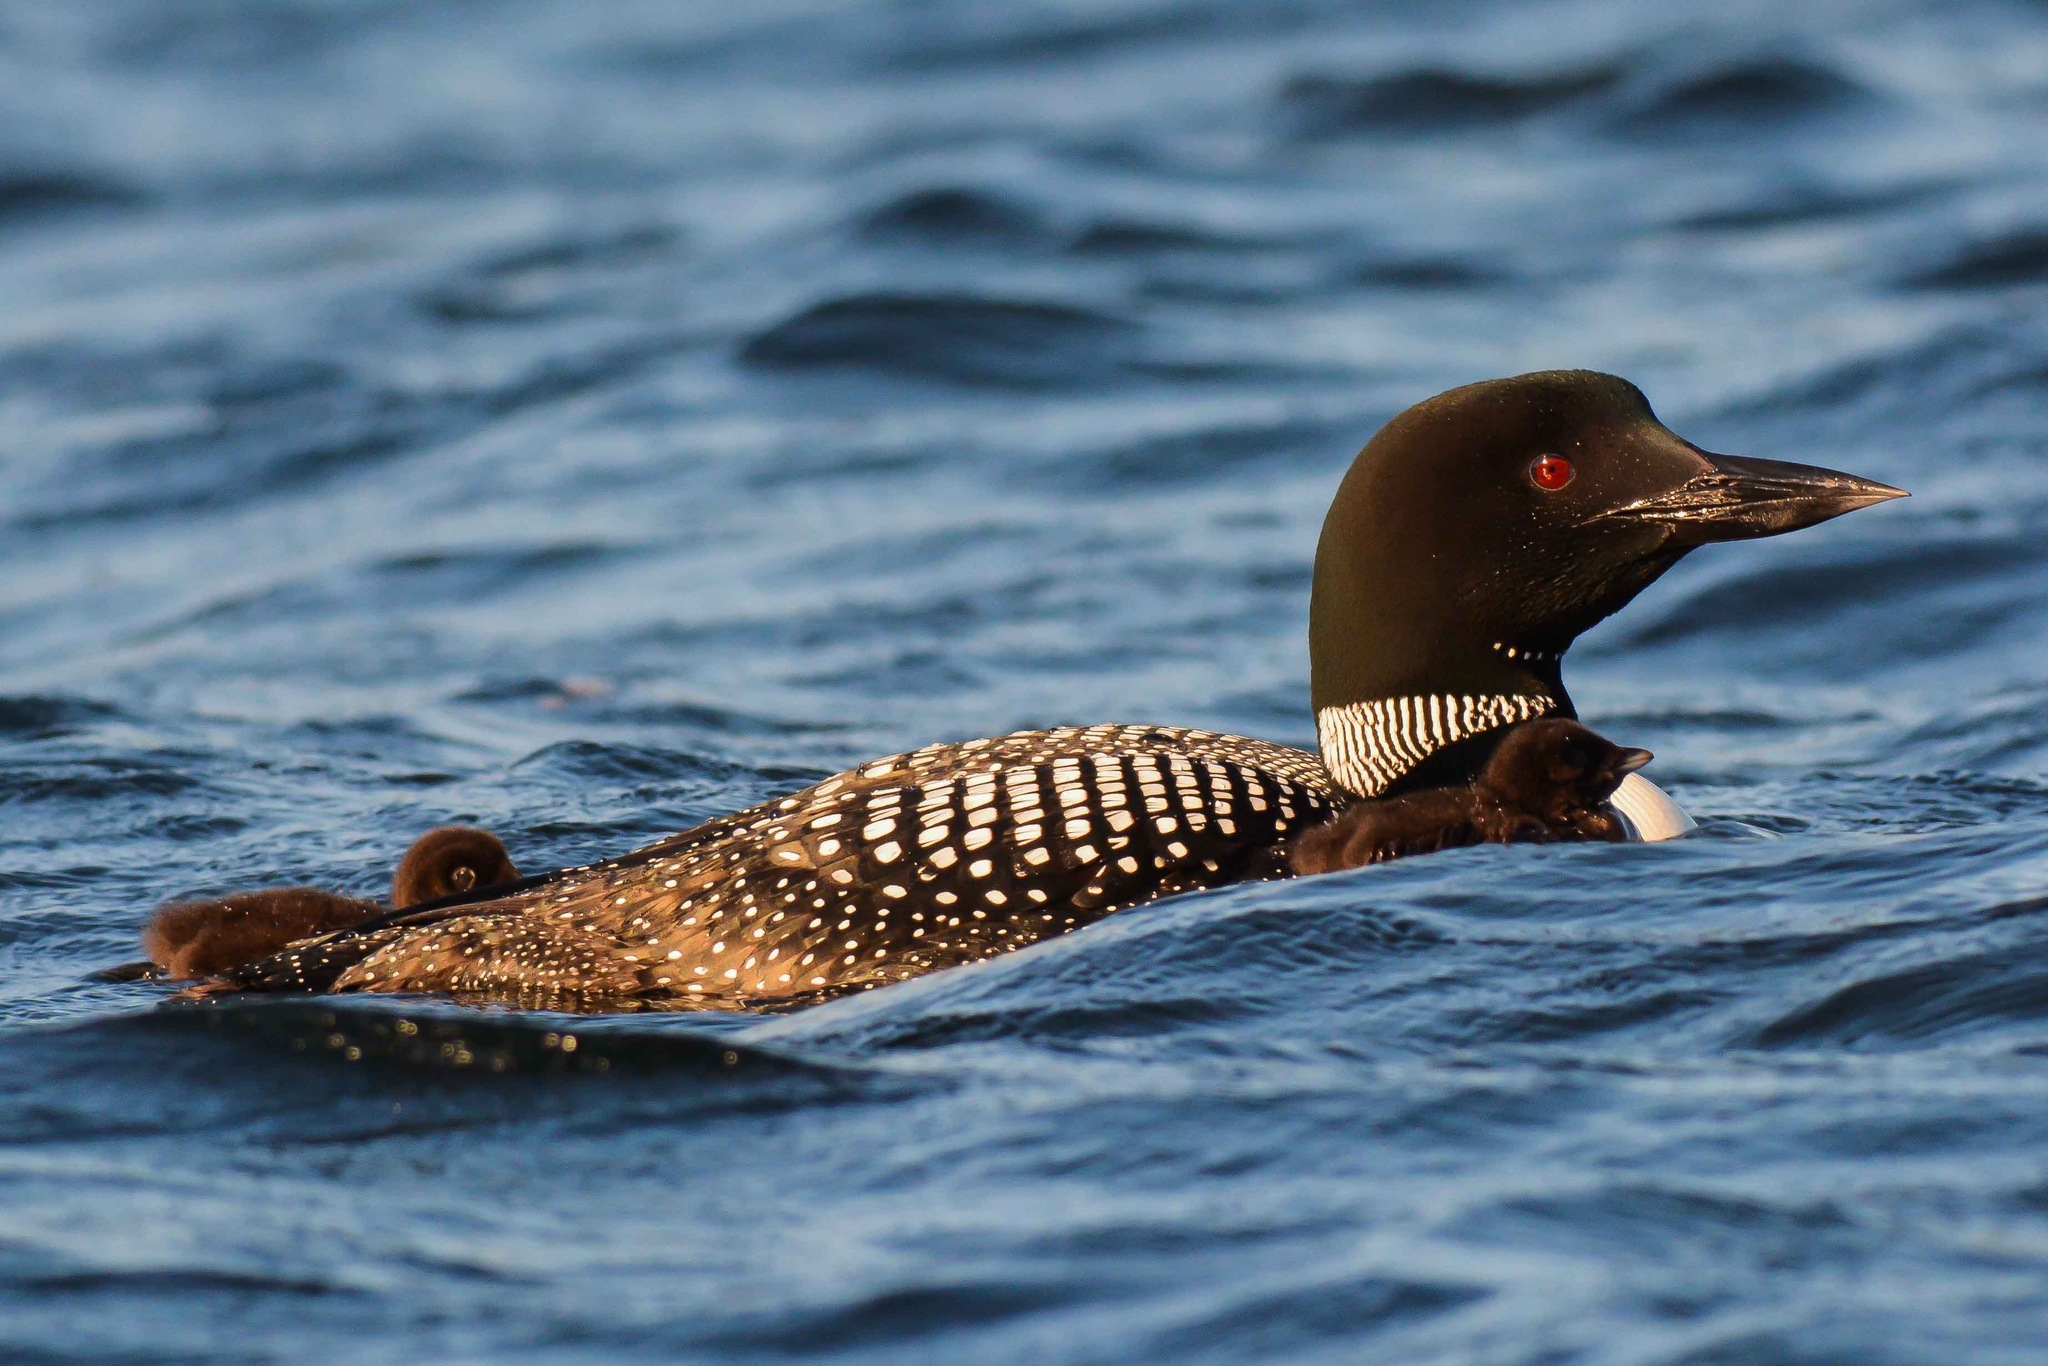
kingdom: Animalia
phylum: Chordata
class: Aves
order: Gaviiformes
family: Gaviidae
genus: Gavia
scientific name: Gavia immer
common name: Common loon
